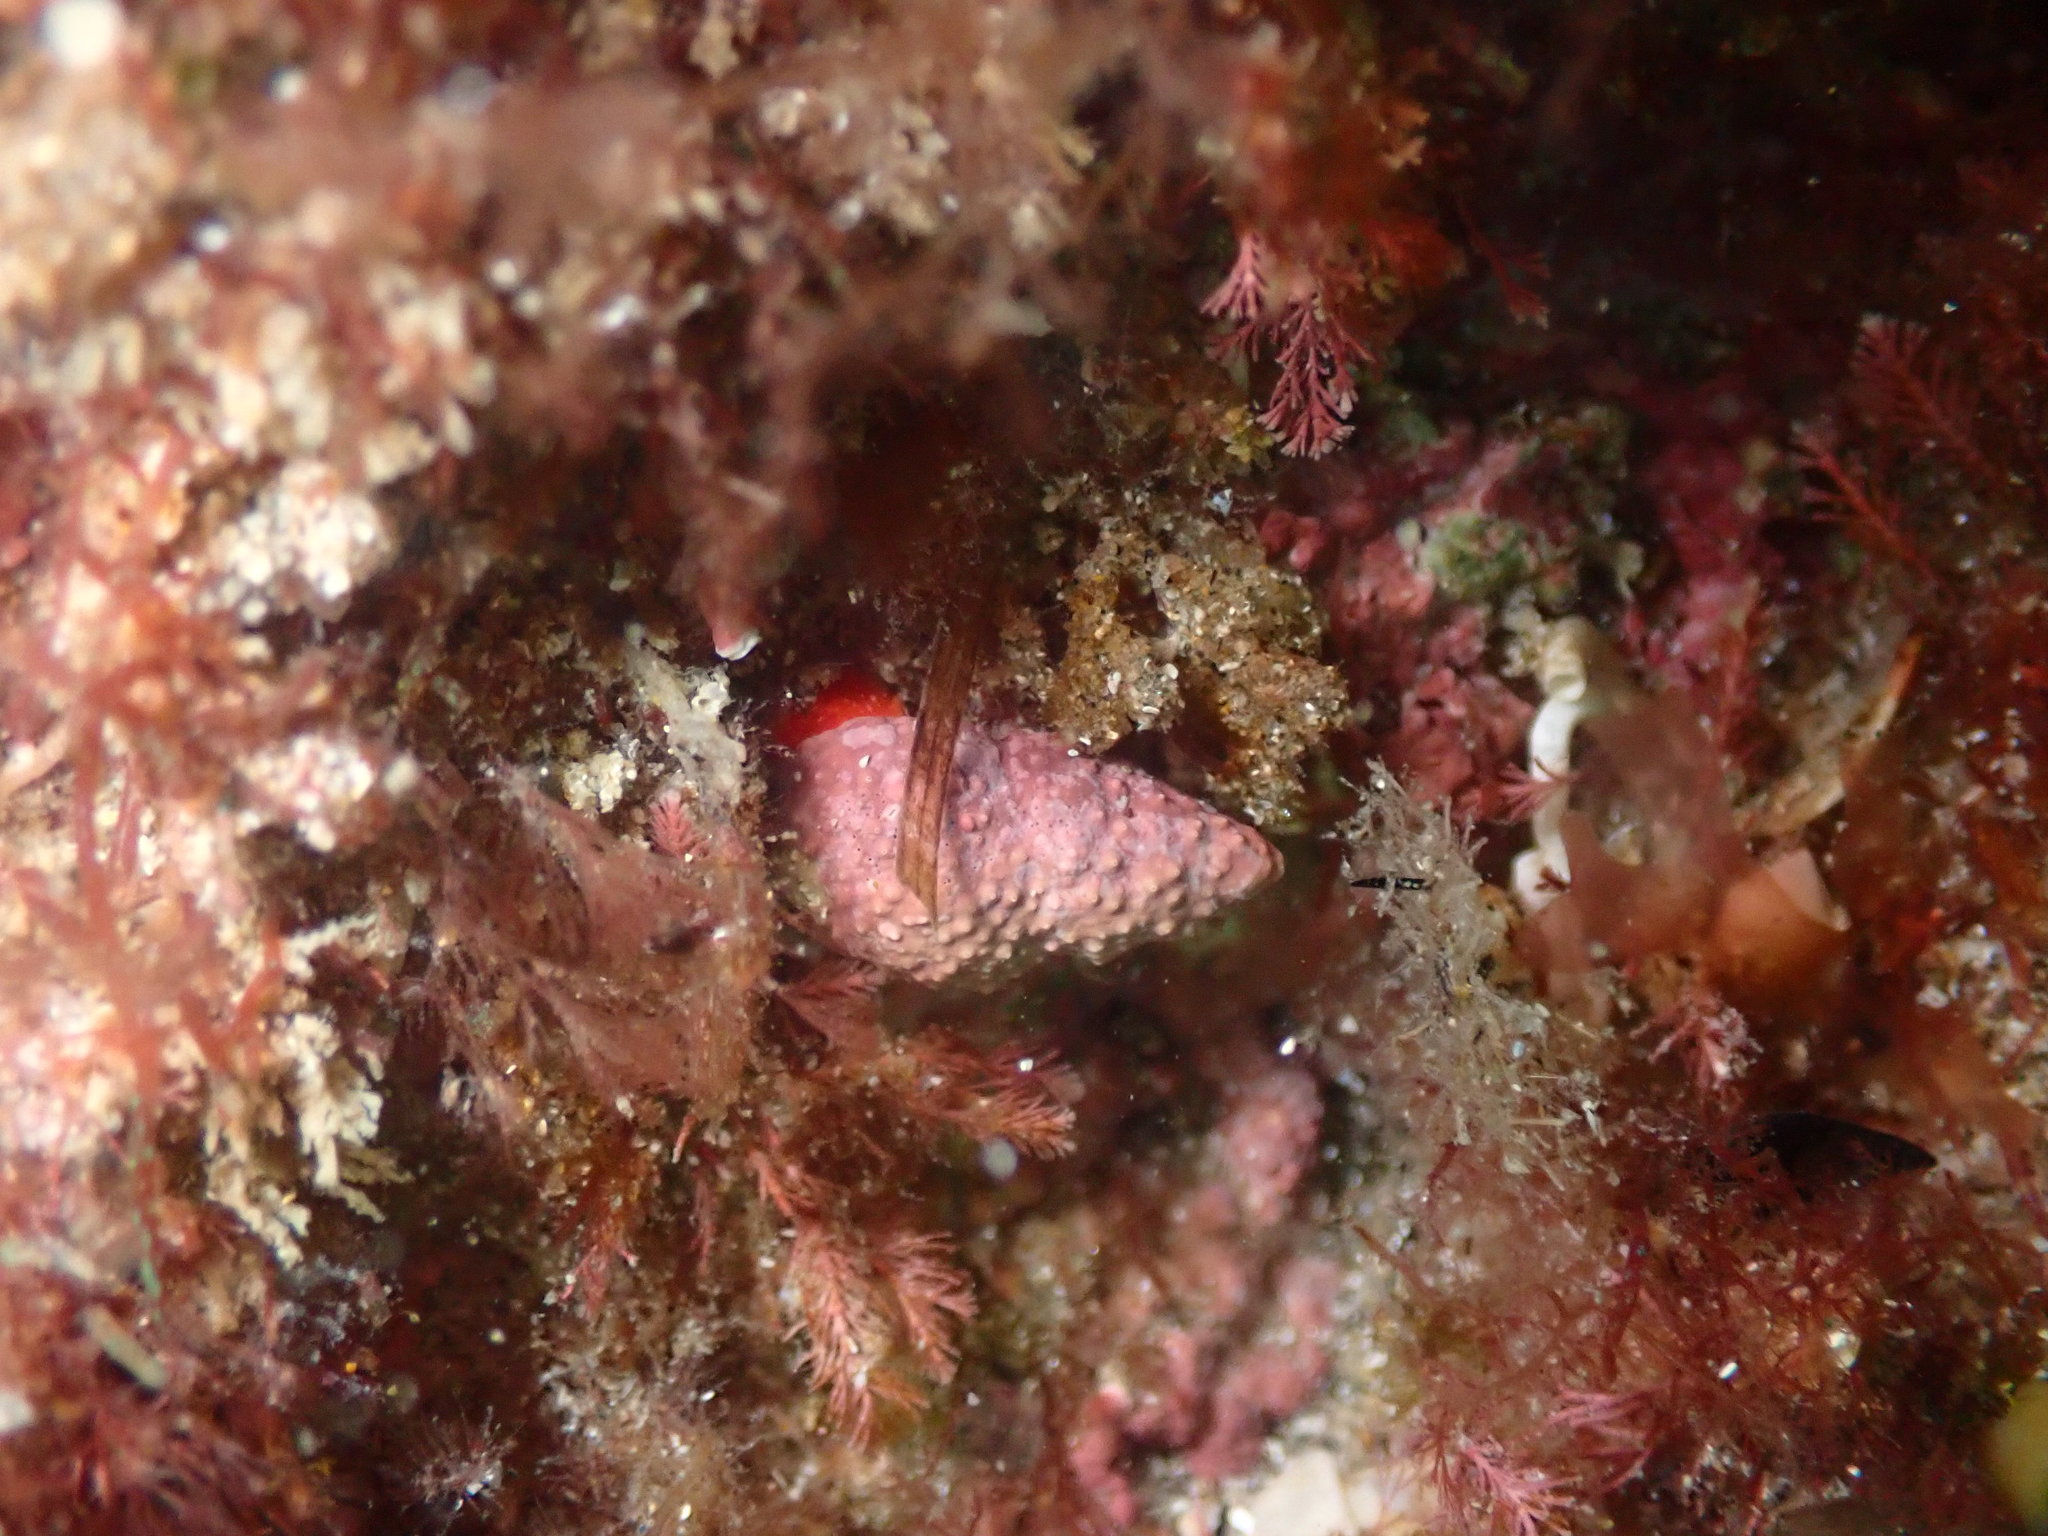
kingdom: Animalia
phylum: Mollusca
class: Gastropoda
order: Neogastropoda
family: Fasciolariidae
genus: Taron
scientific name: Taron dubius
